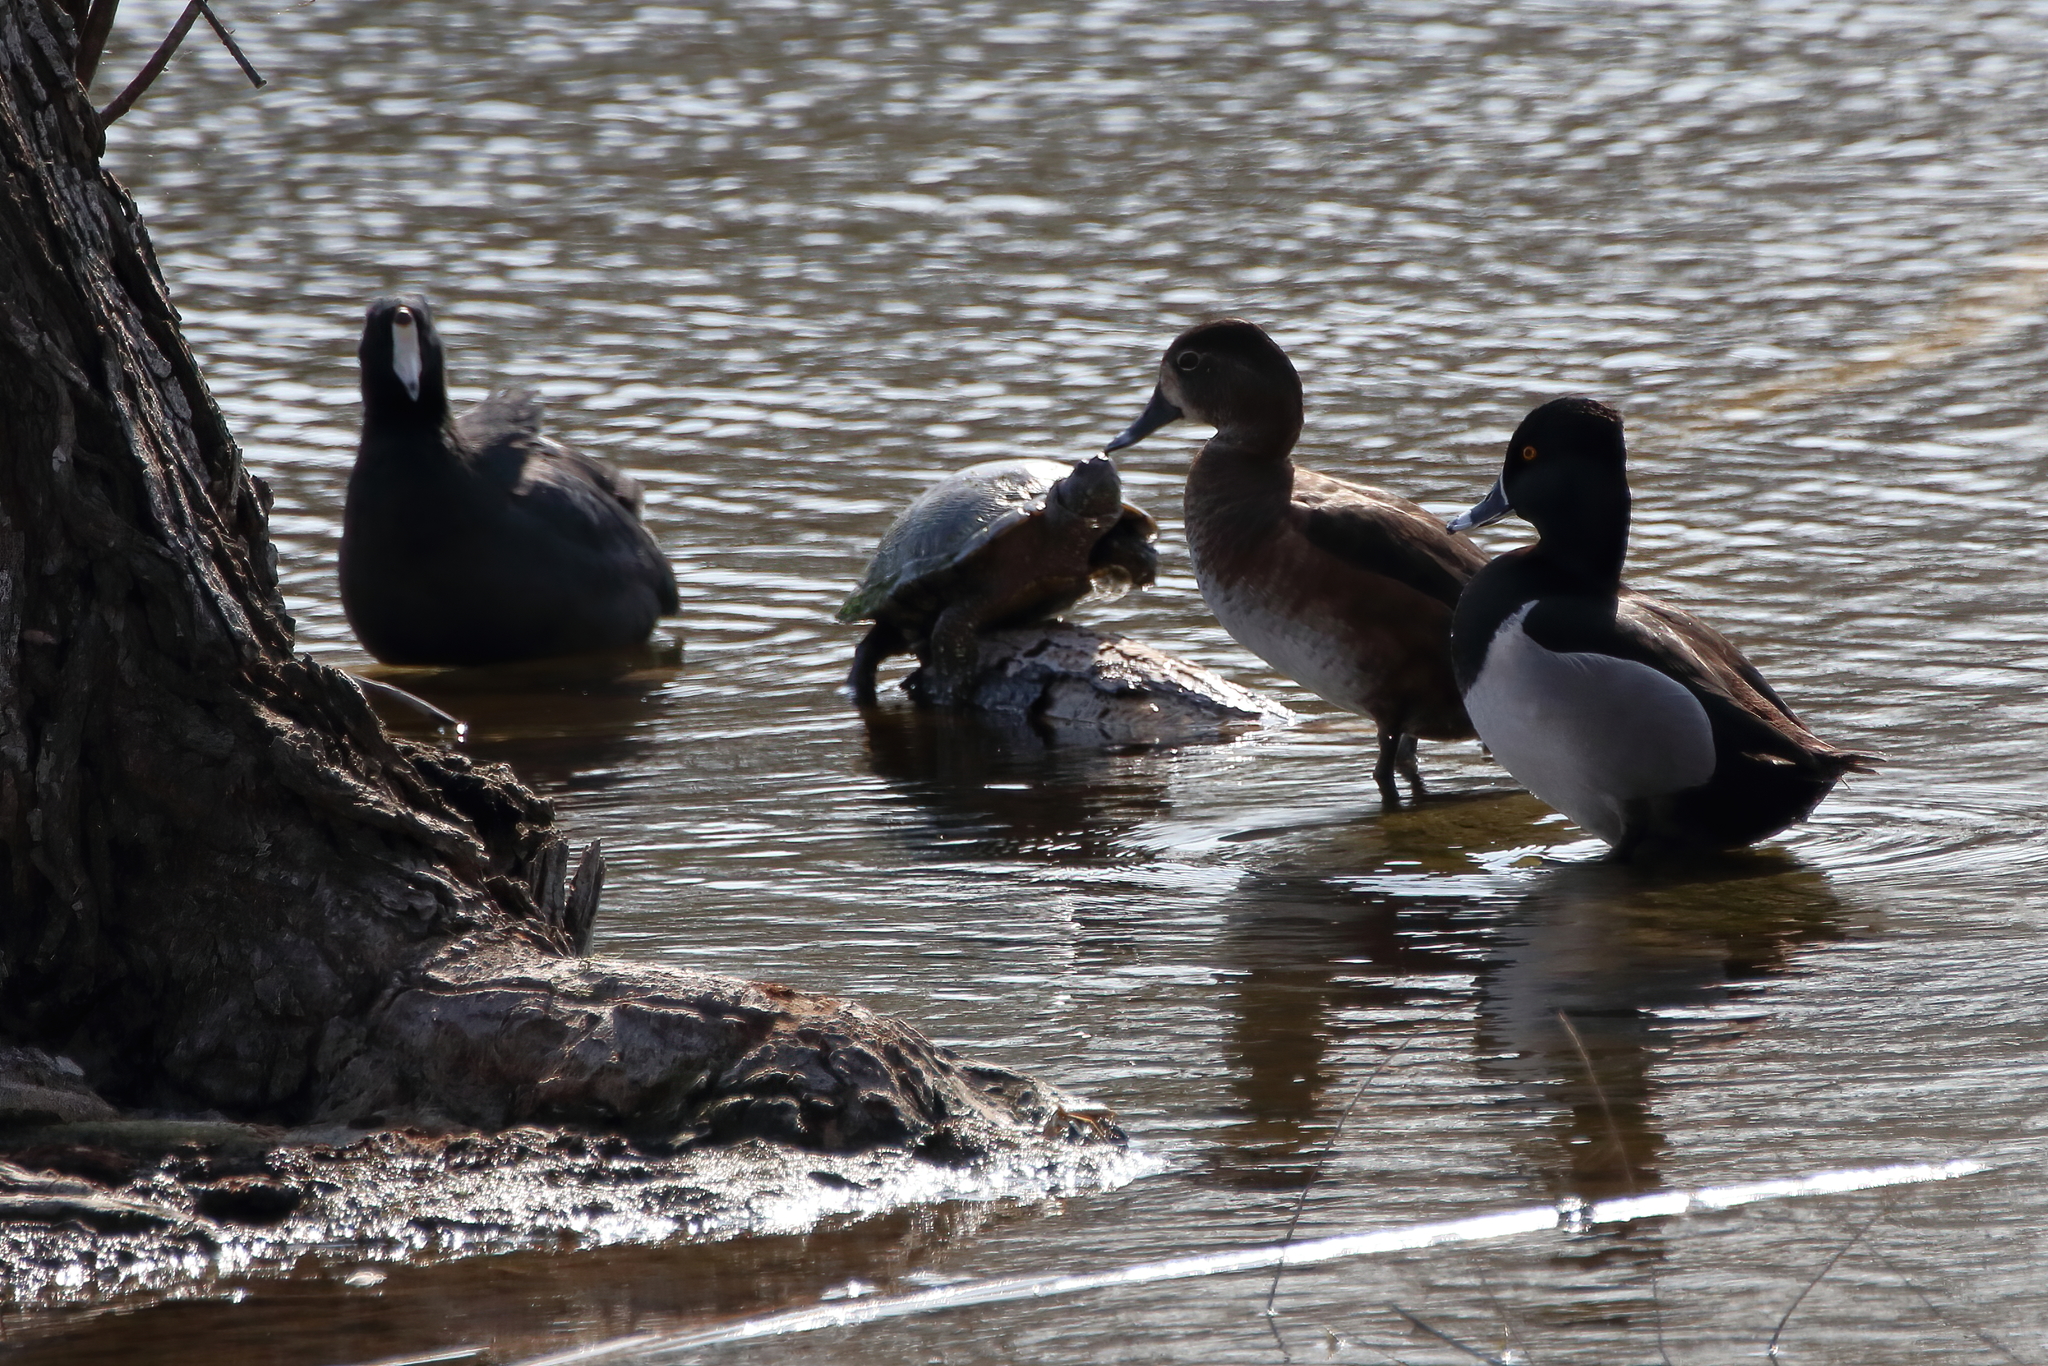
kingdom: Animalia
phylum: Chordata
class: Aves
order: Anseriformes
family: Anatidae
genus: Aythya
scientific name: Aythya collaris
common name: Ring-necked duck
